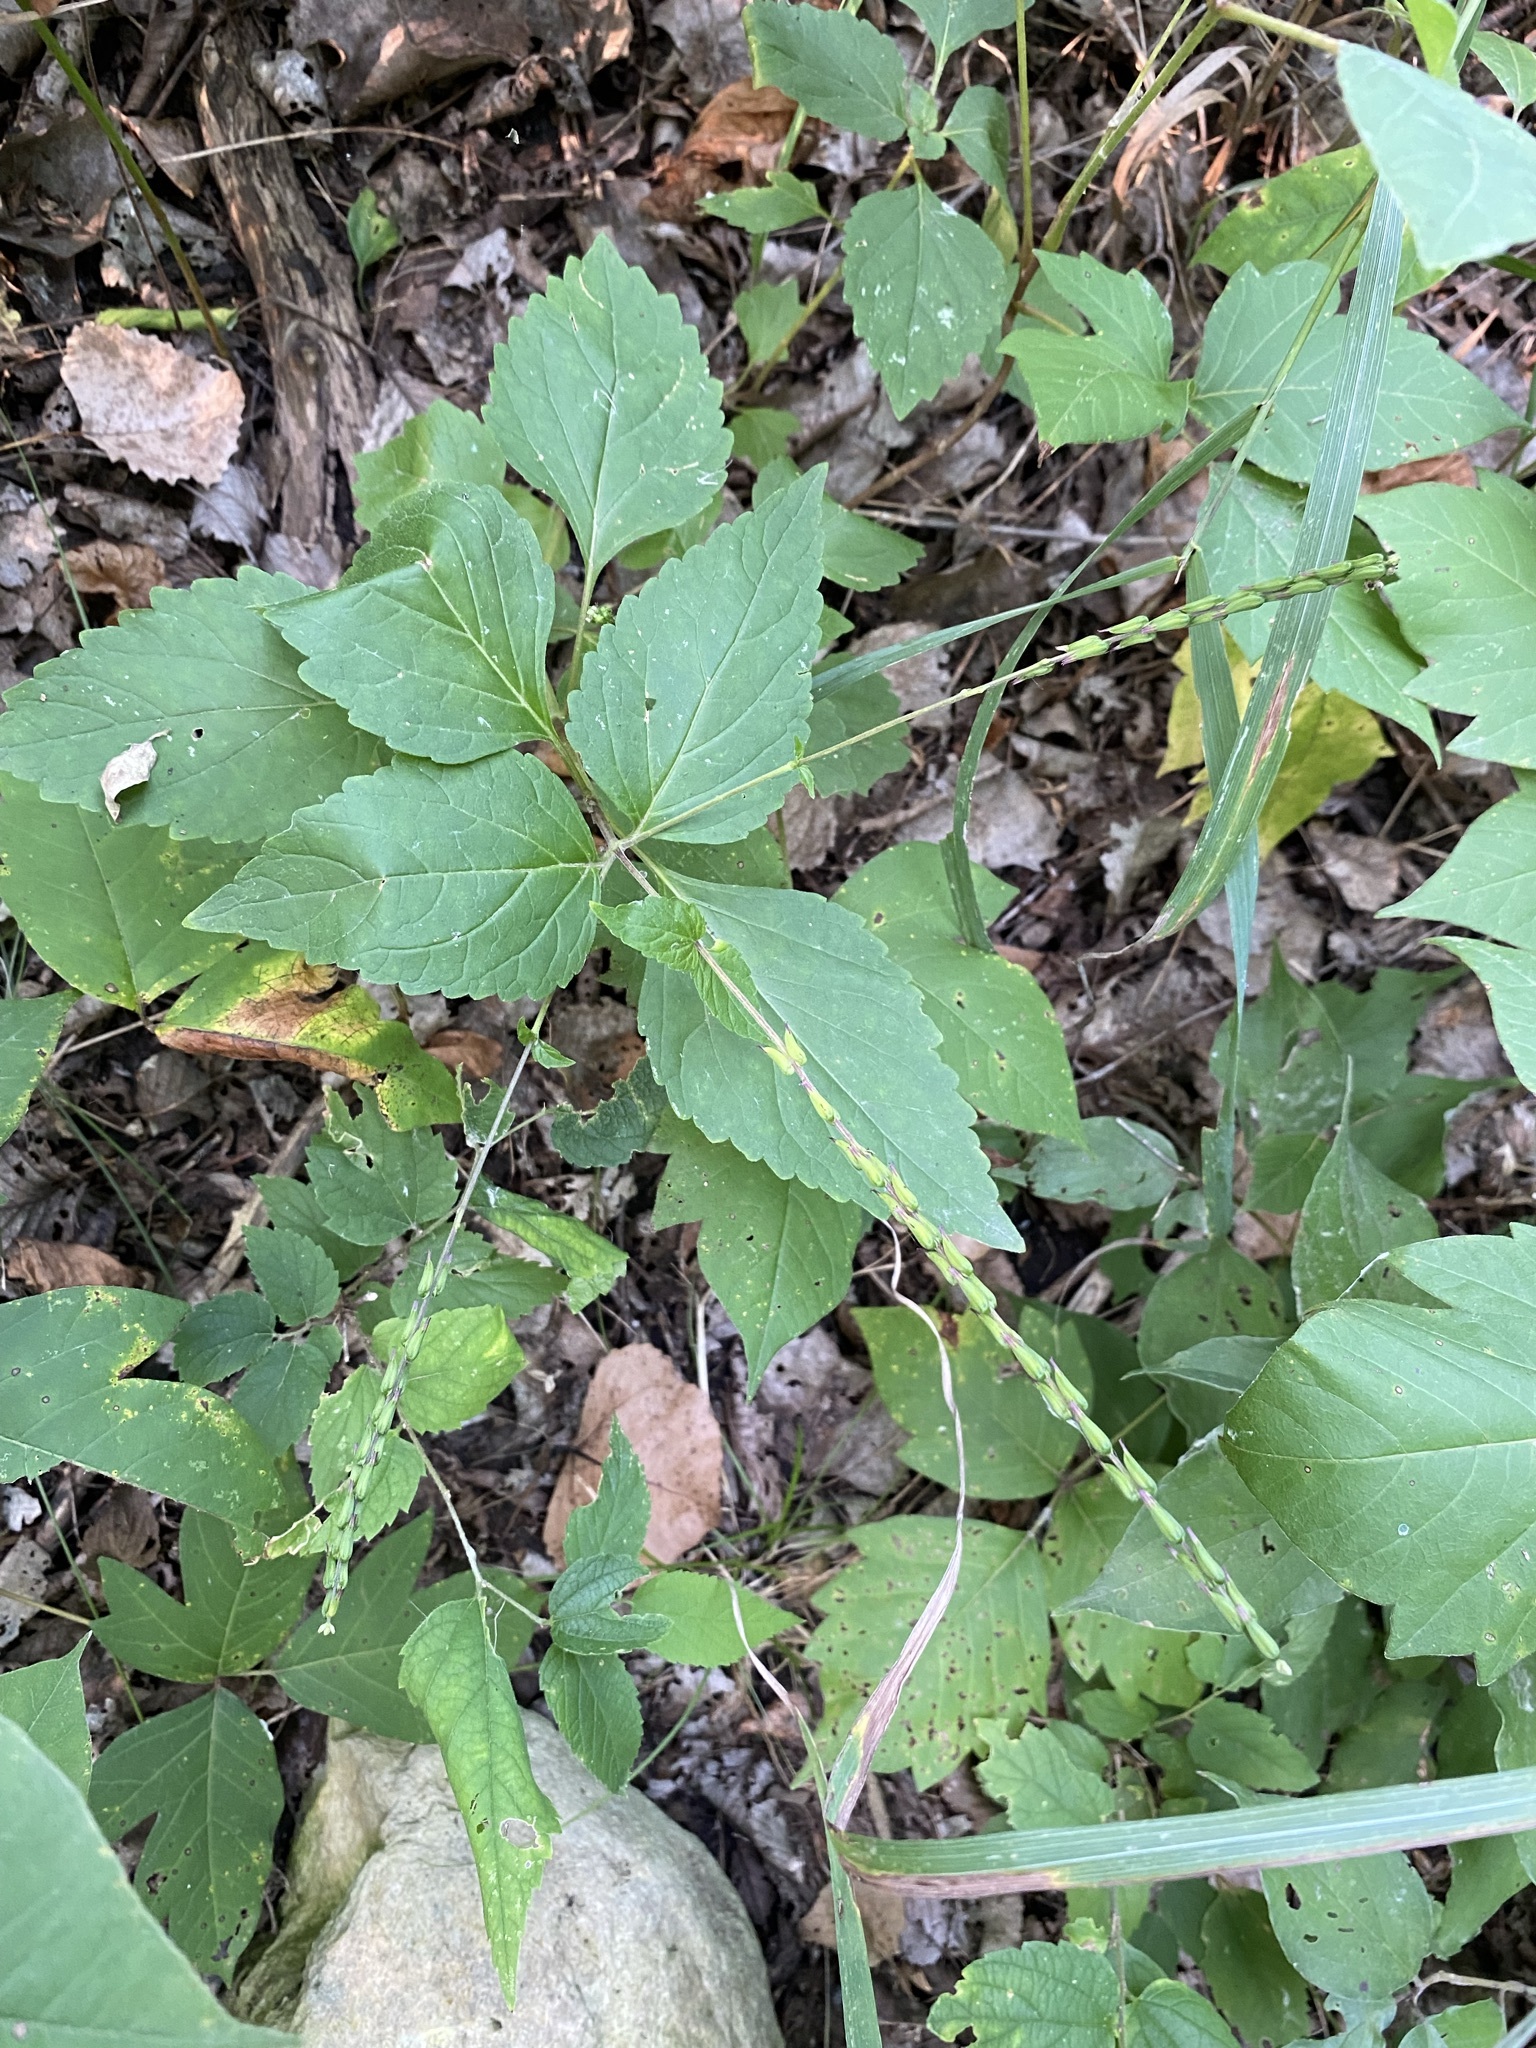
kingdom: Plantae
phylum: Tracheophyta
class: Magnoliopsida
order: Lamiales
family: Phrymaceae
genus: Phryma
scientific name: Phryma leptostachya
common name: American lopseed
